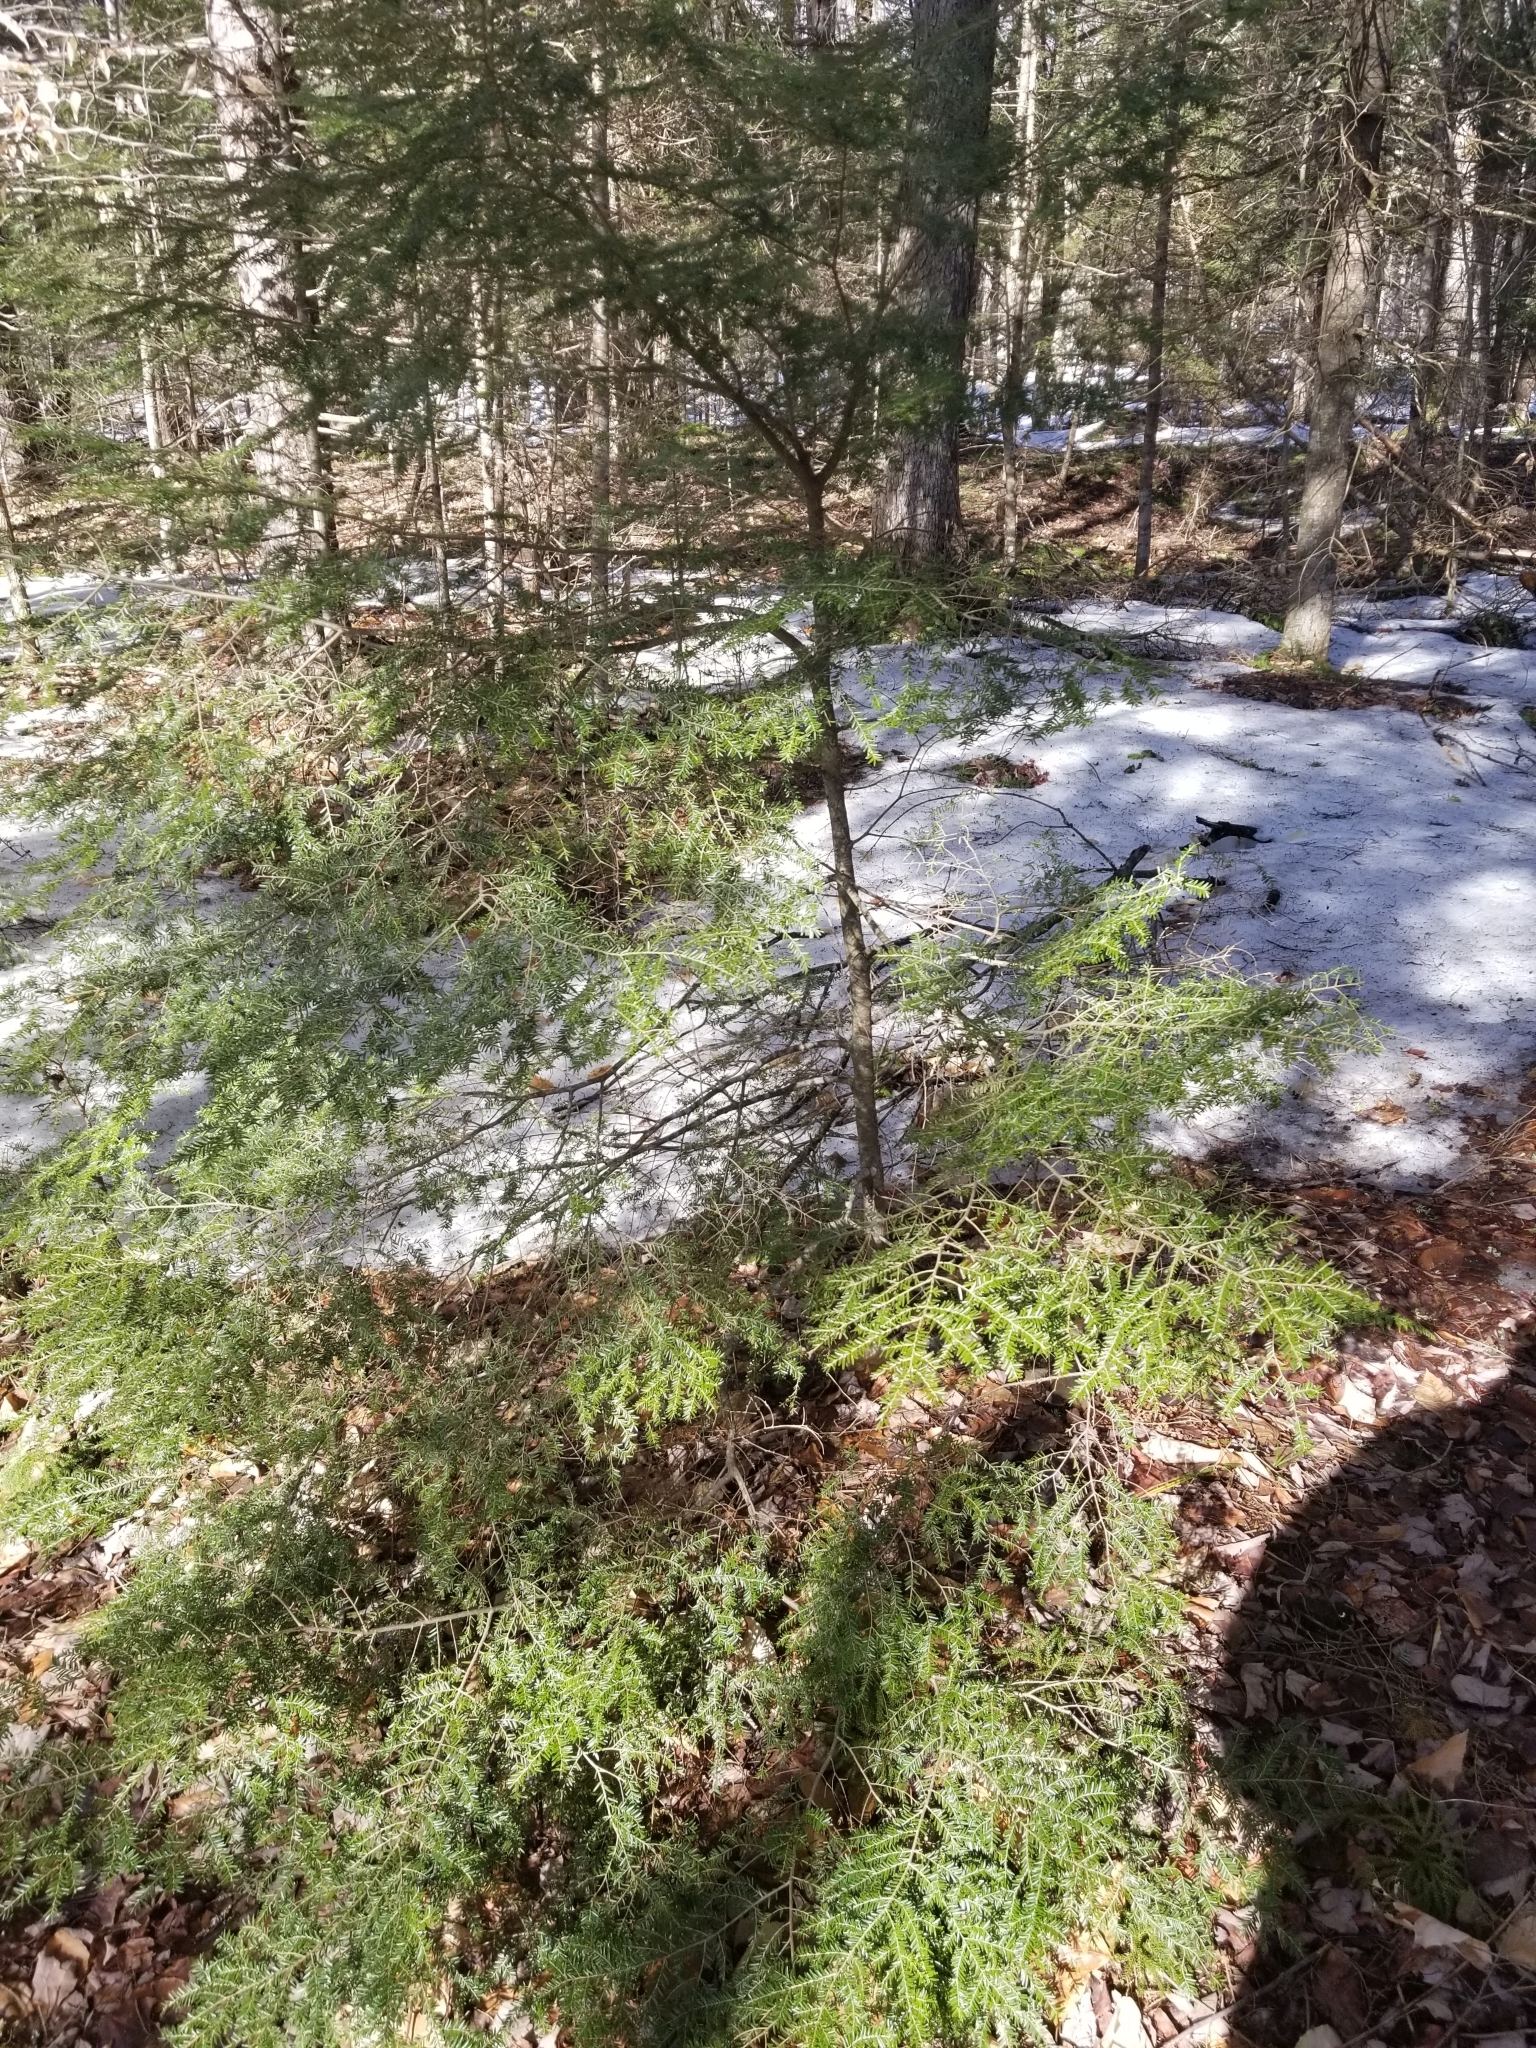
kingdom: Plantae
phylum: Tracheophyta
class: Pinopsida
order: Pinales
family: Pinaceae
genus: Tsuga
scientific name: Tsuga canadensis
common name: Eastern hemlock
